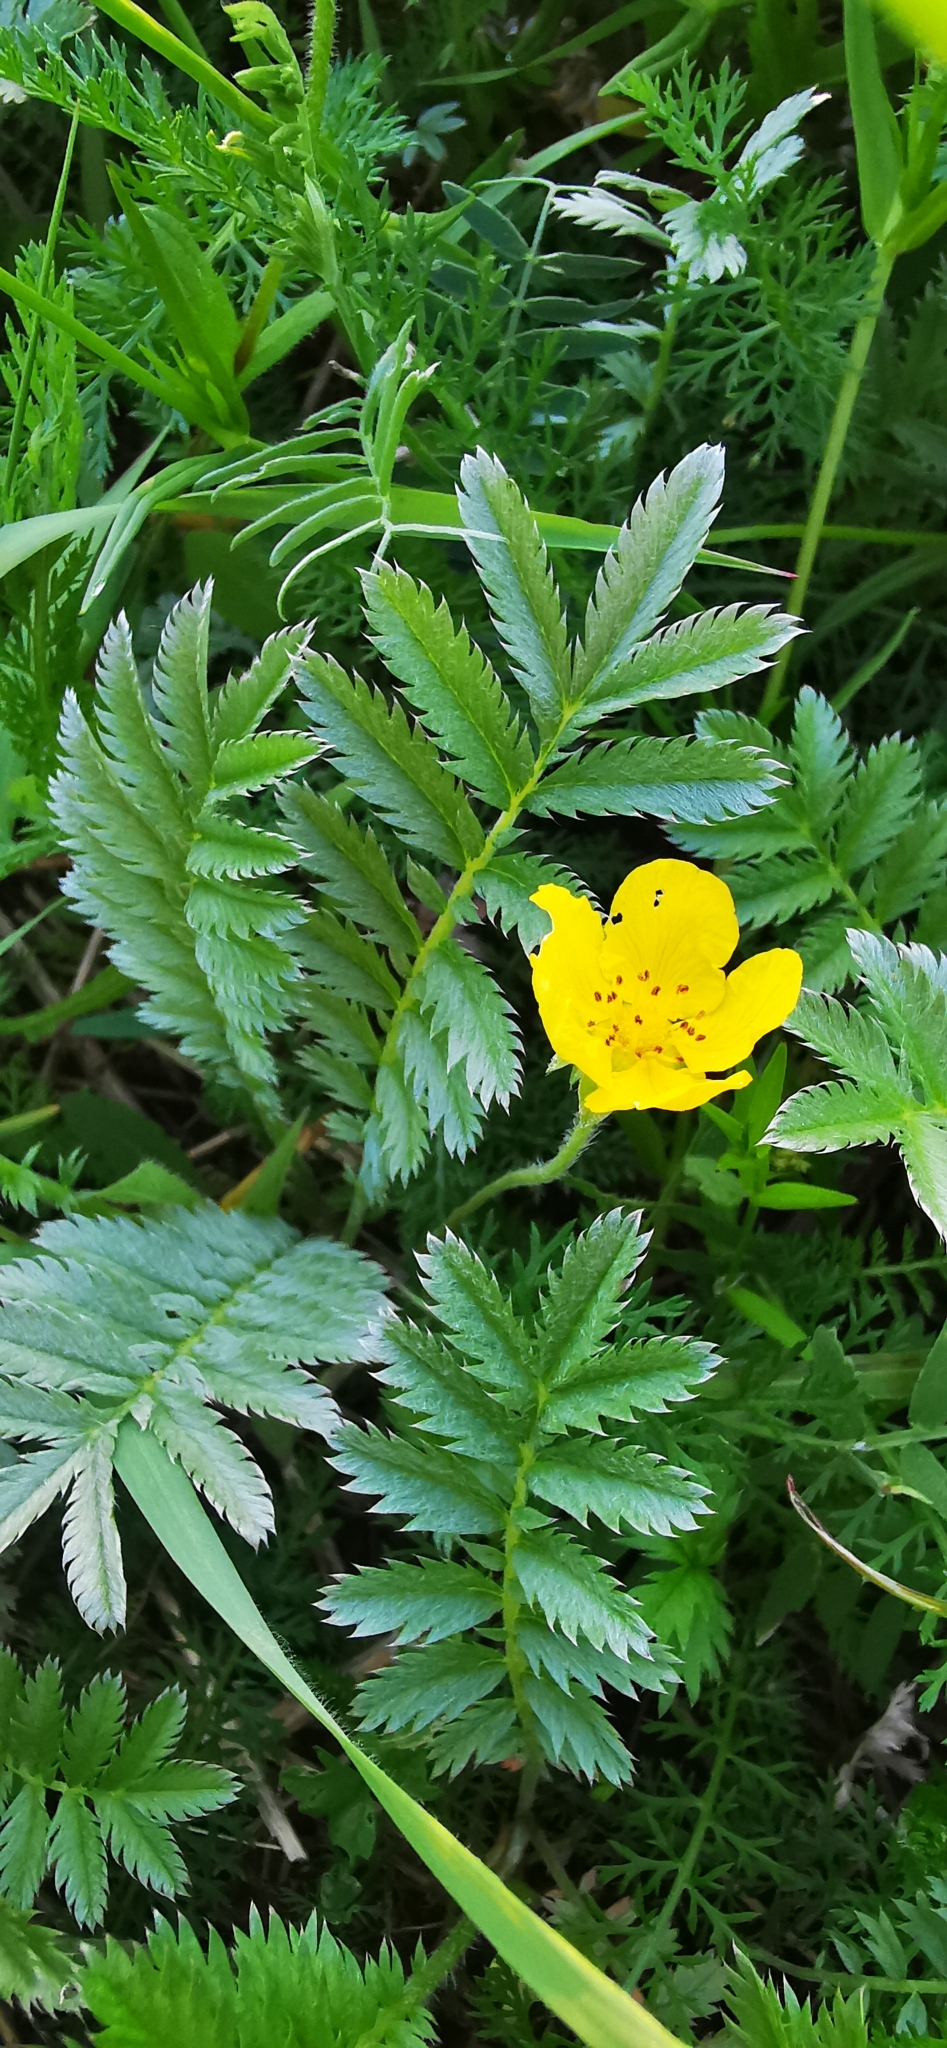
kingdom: Plantae
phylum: Tracheophyta
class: Magnoliopsida
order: Rosales
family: Rosaceae
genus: Argentina
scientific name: Argentina anserina
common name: Common silverweed
